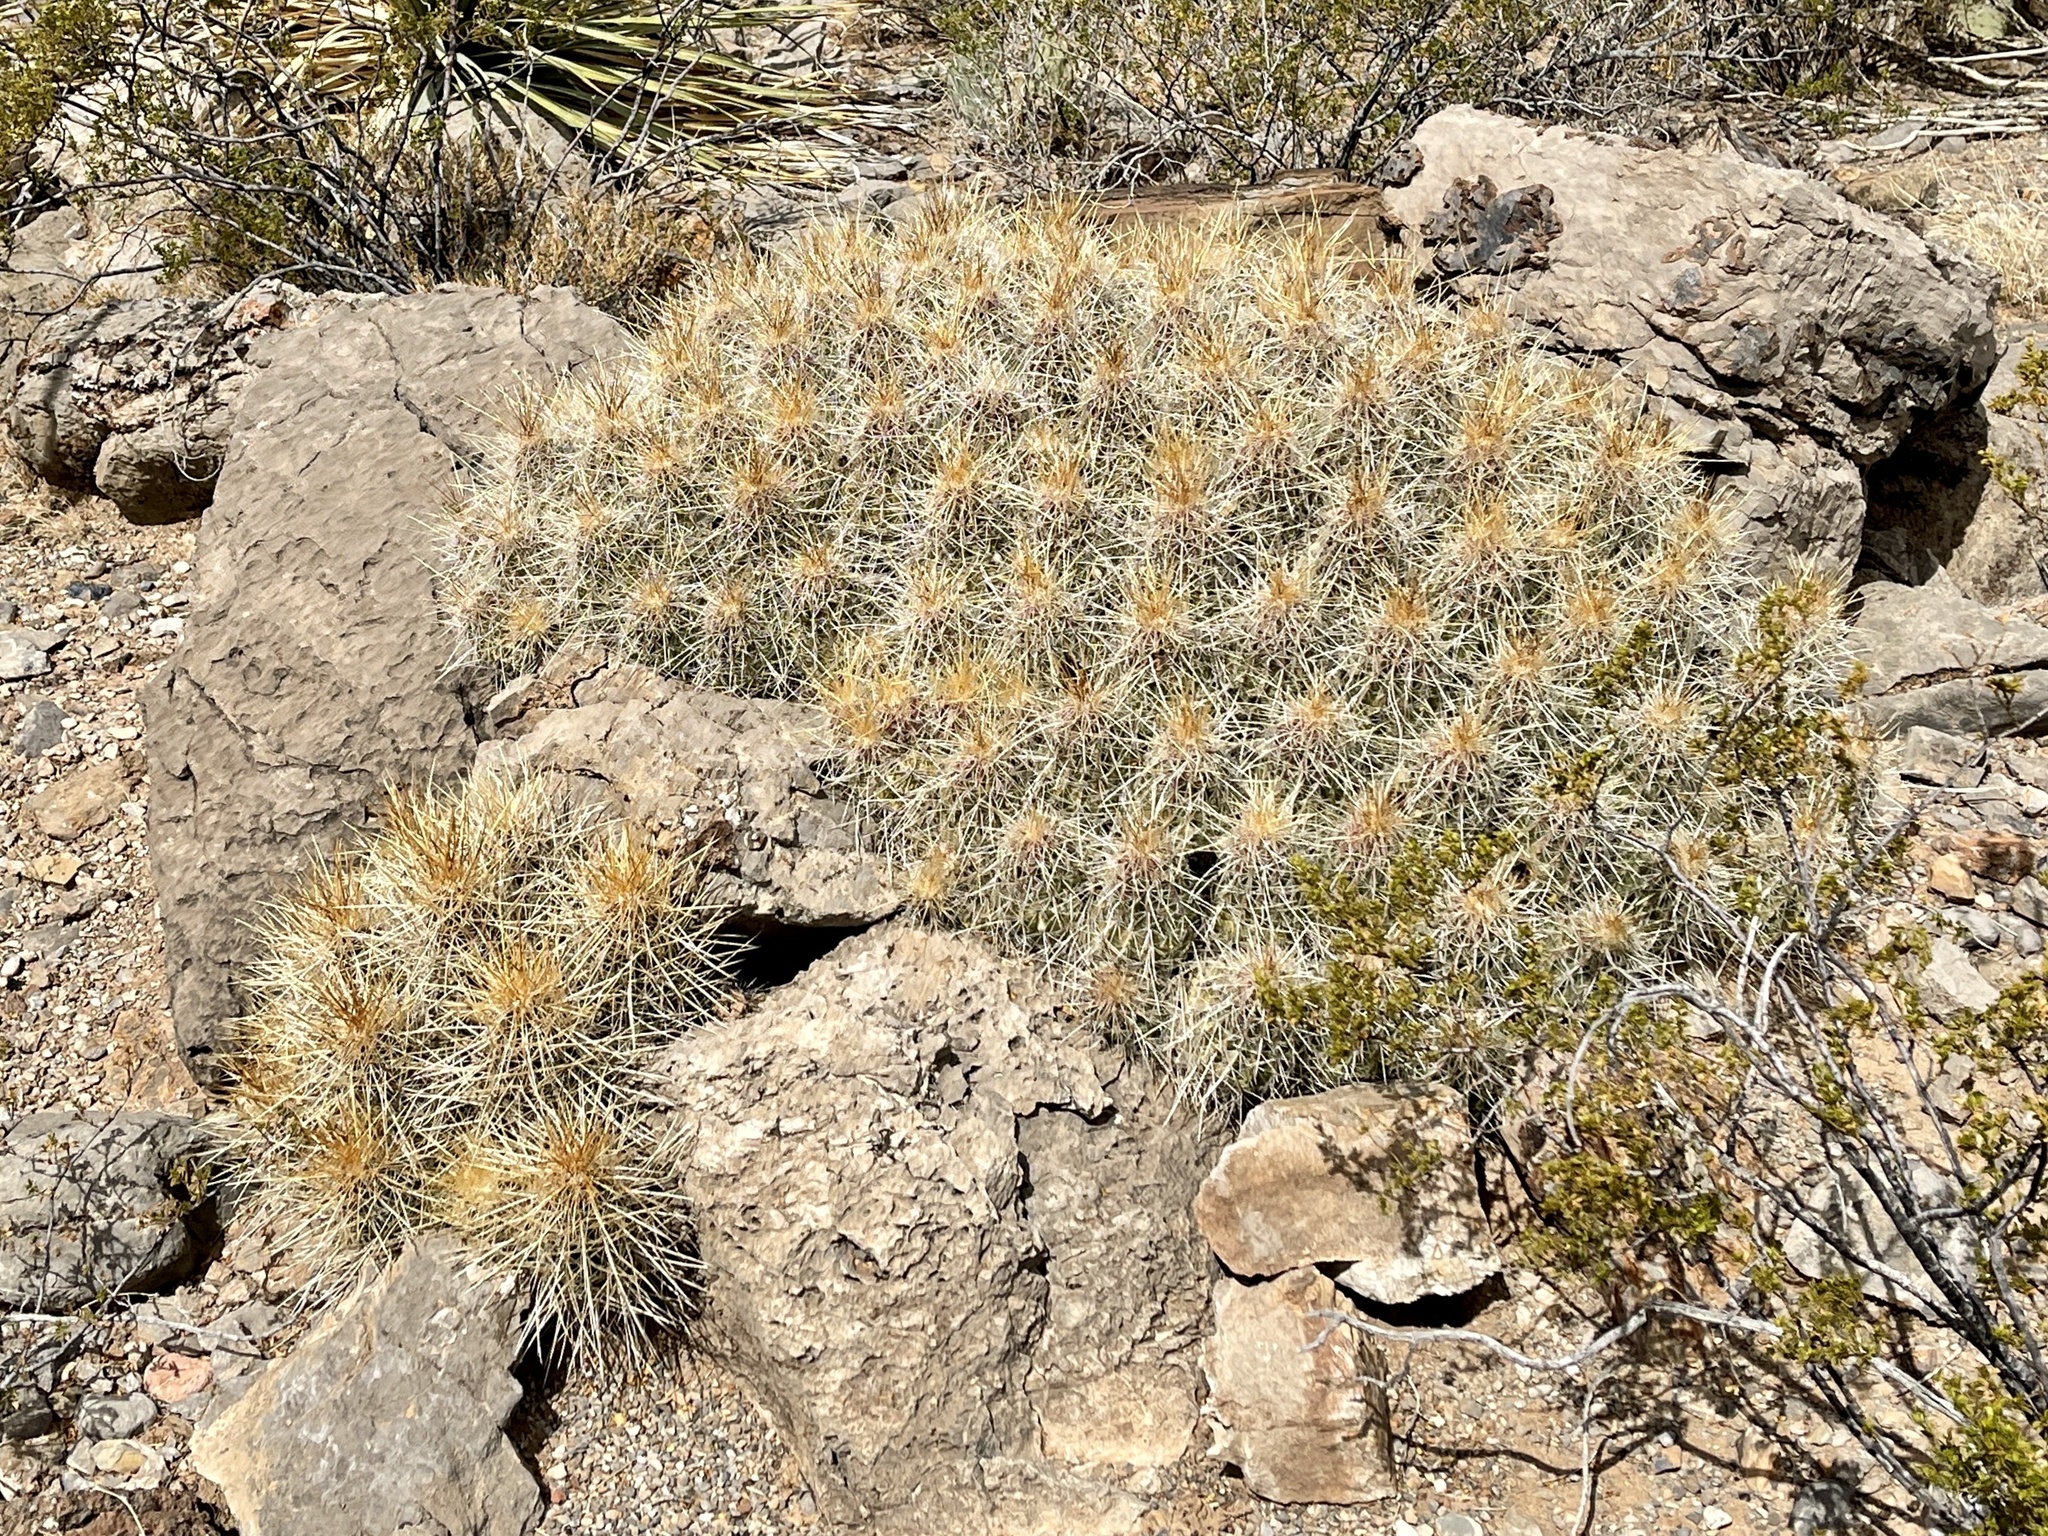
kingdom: Plantae
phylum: Tracheophyta
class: Magnoliopsida
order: Caryophyllales
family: Cactaceae
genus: Echinocereus
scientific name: Echinocereus stramineus
